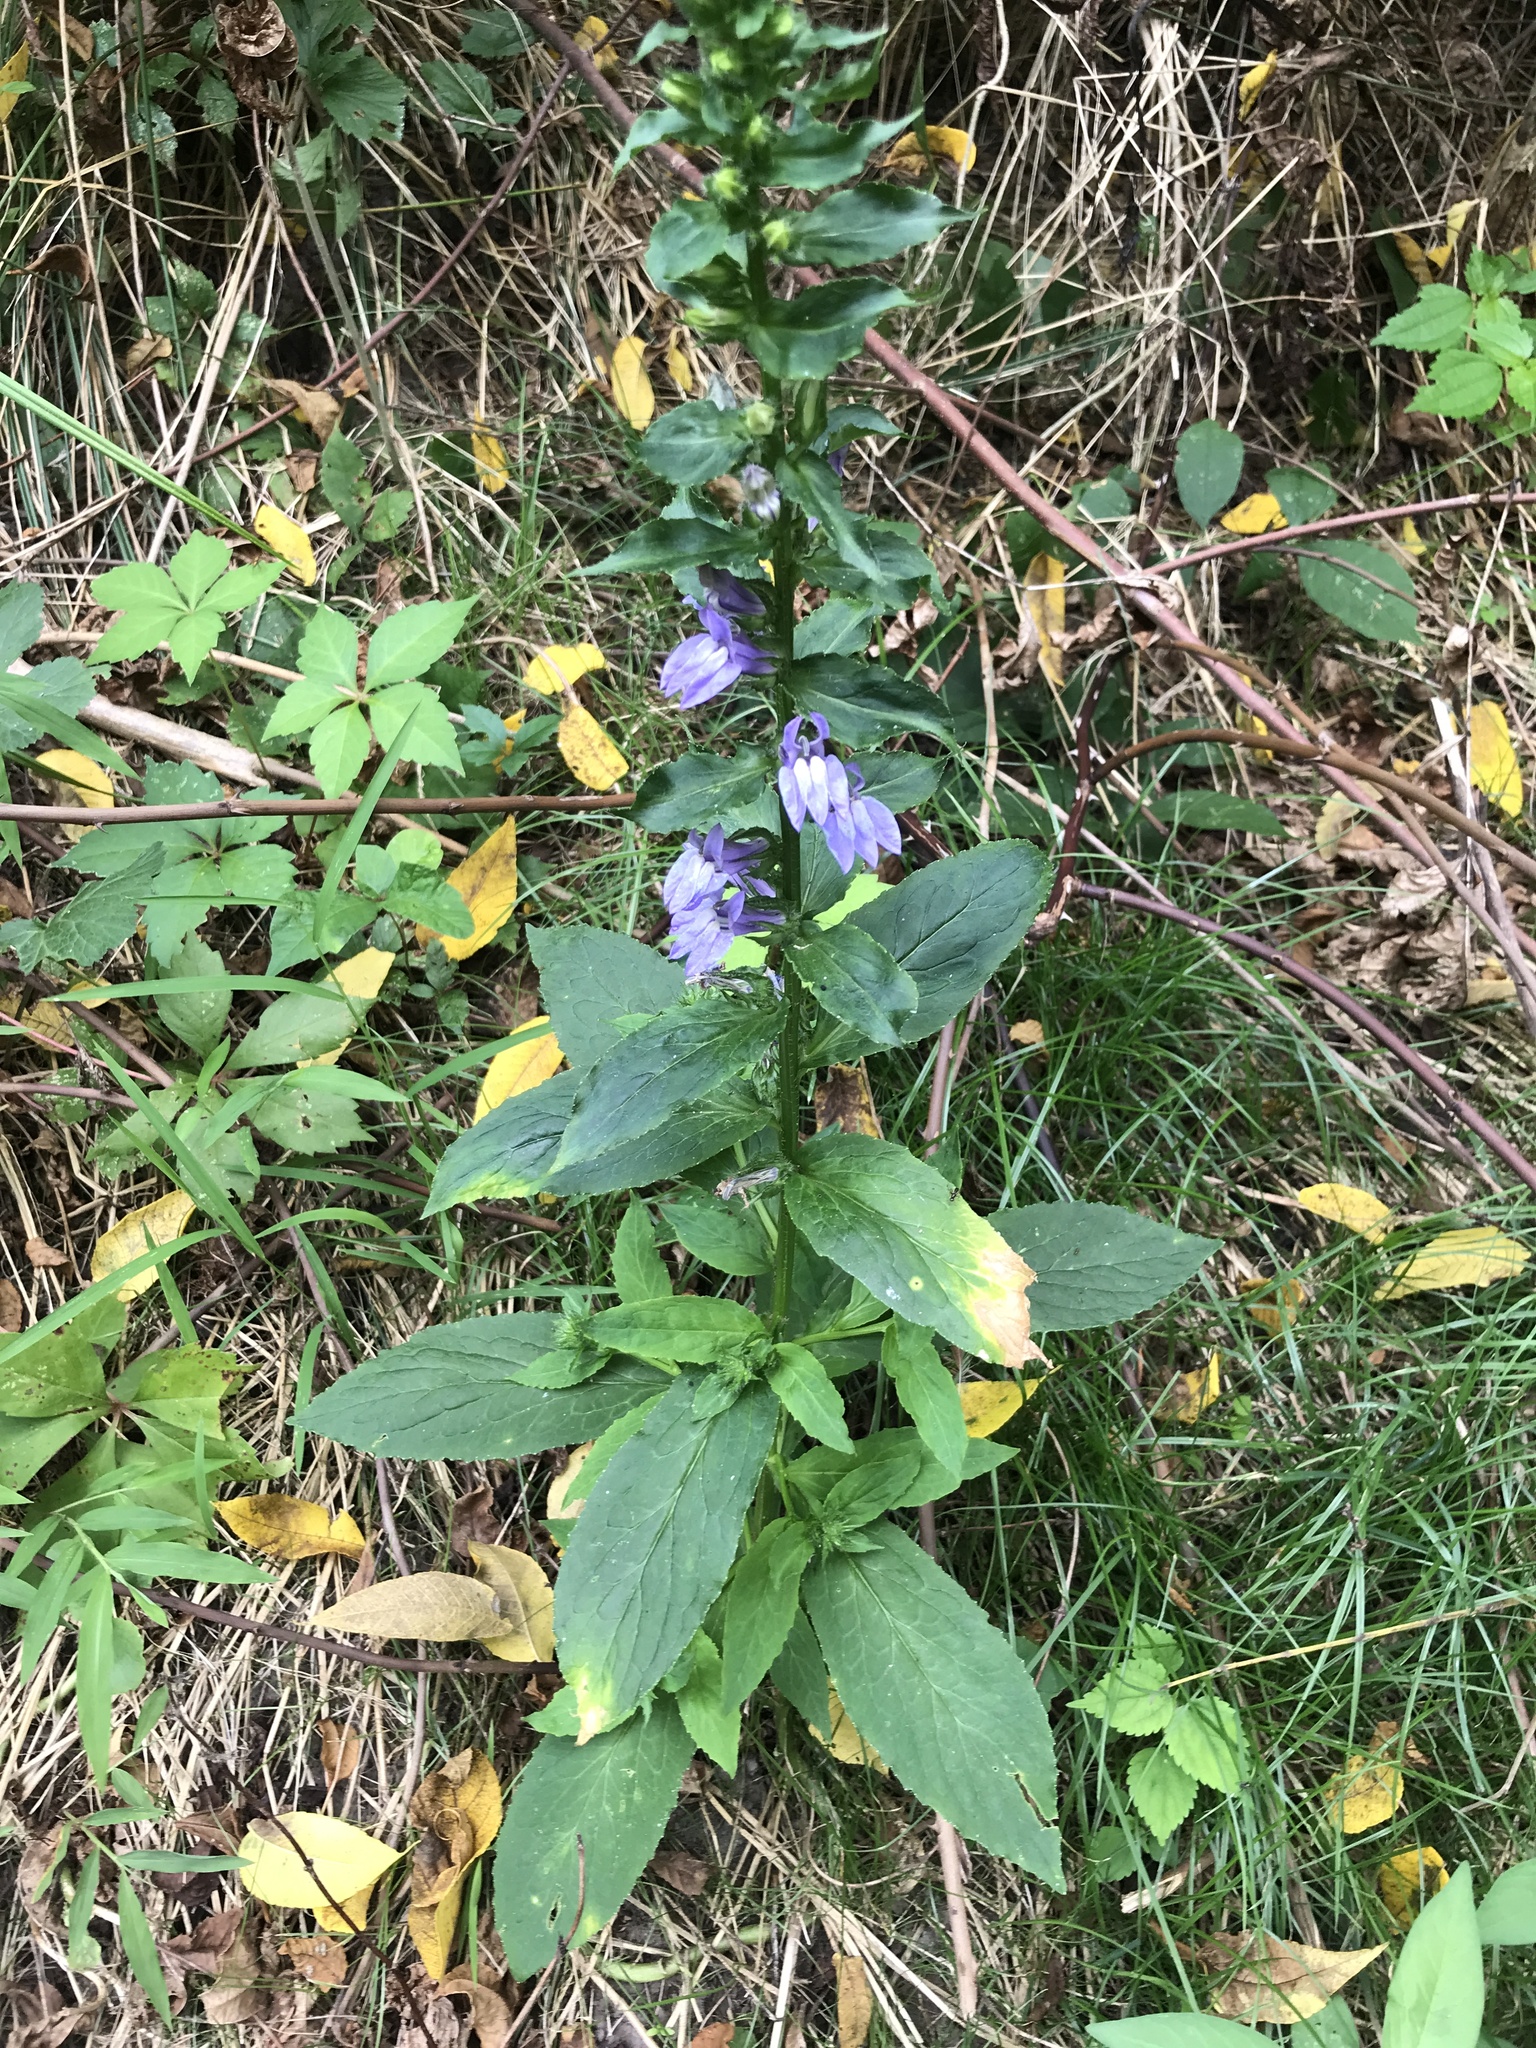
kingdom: Plantae
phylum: Tracheophyta
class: Magnoliopsida
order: Asterales
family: Campanulaceae
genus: Lobelia
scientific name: Lobelia siphilitica
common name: Great lobelia
